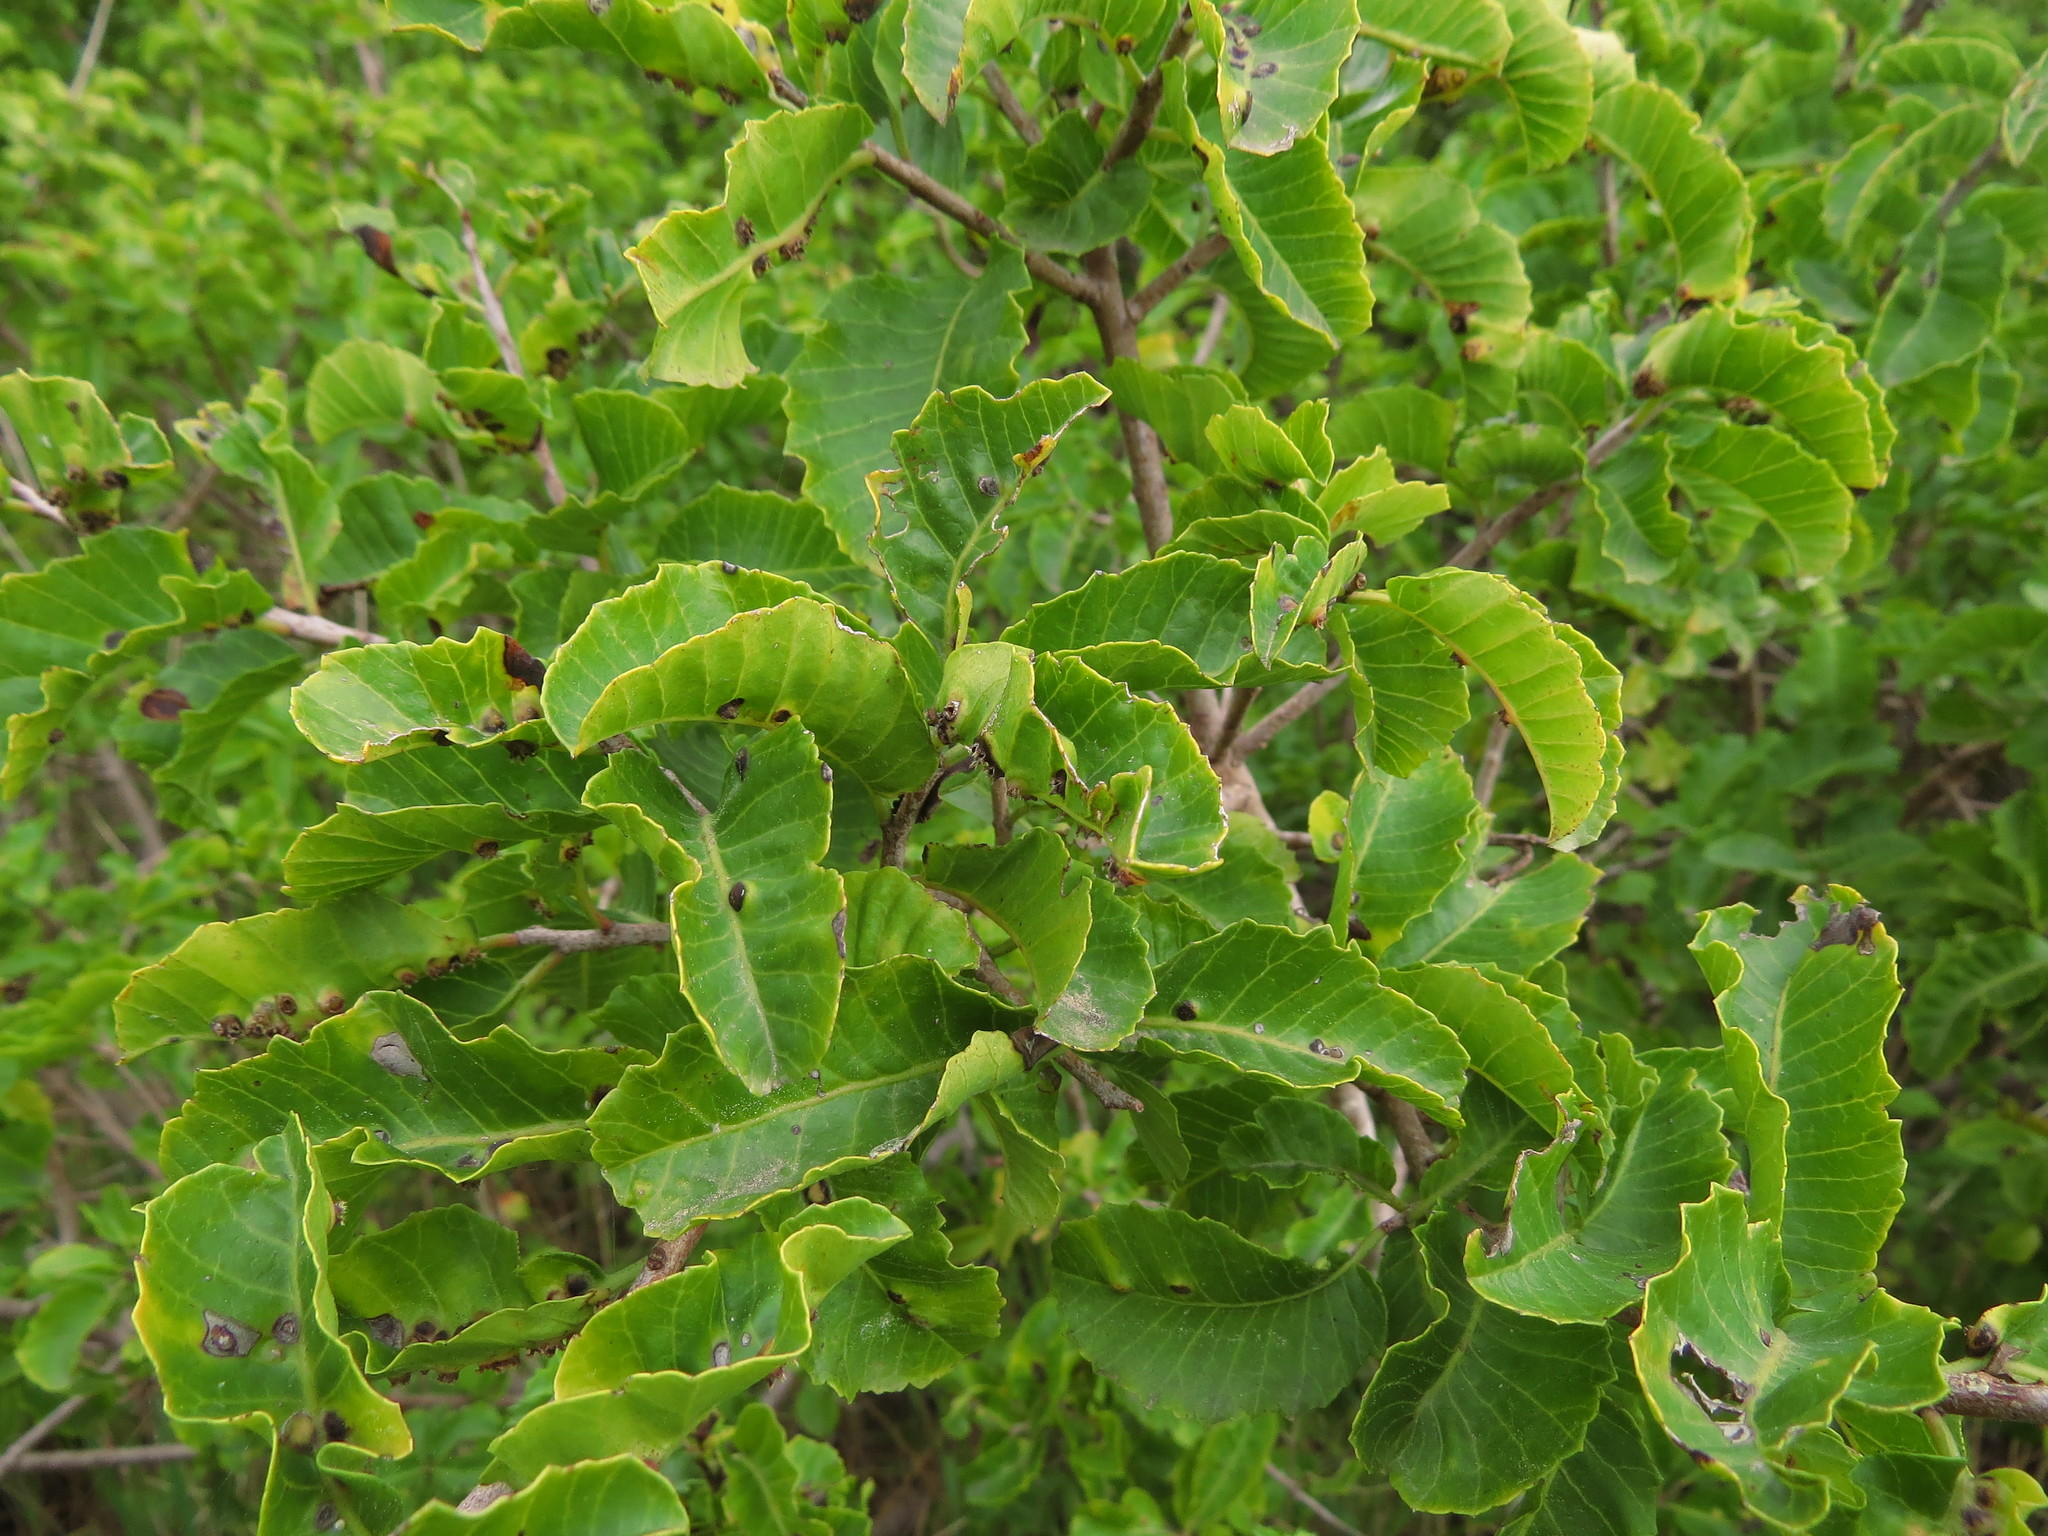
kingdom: Plantae
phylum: Tracheophyta
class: Magnoliopsida
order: Sapindales
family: Anacardiaceae
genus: Schinus
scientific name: Schinus latifolia
